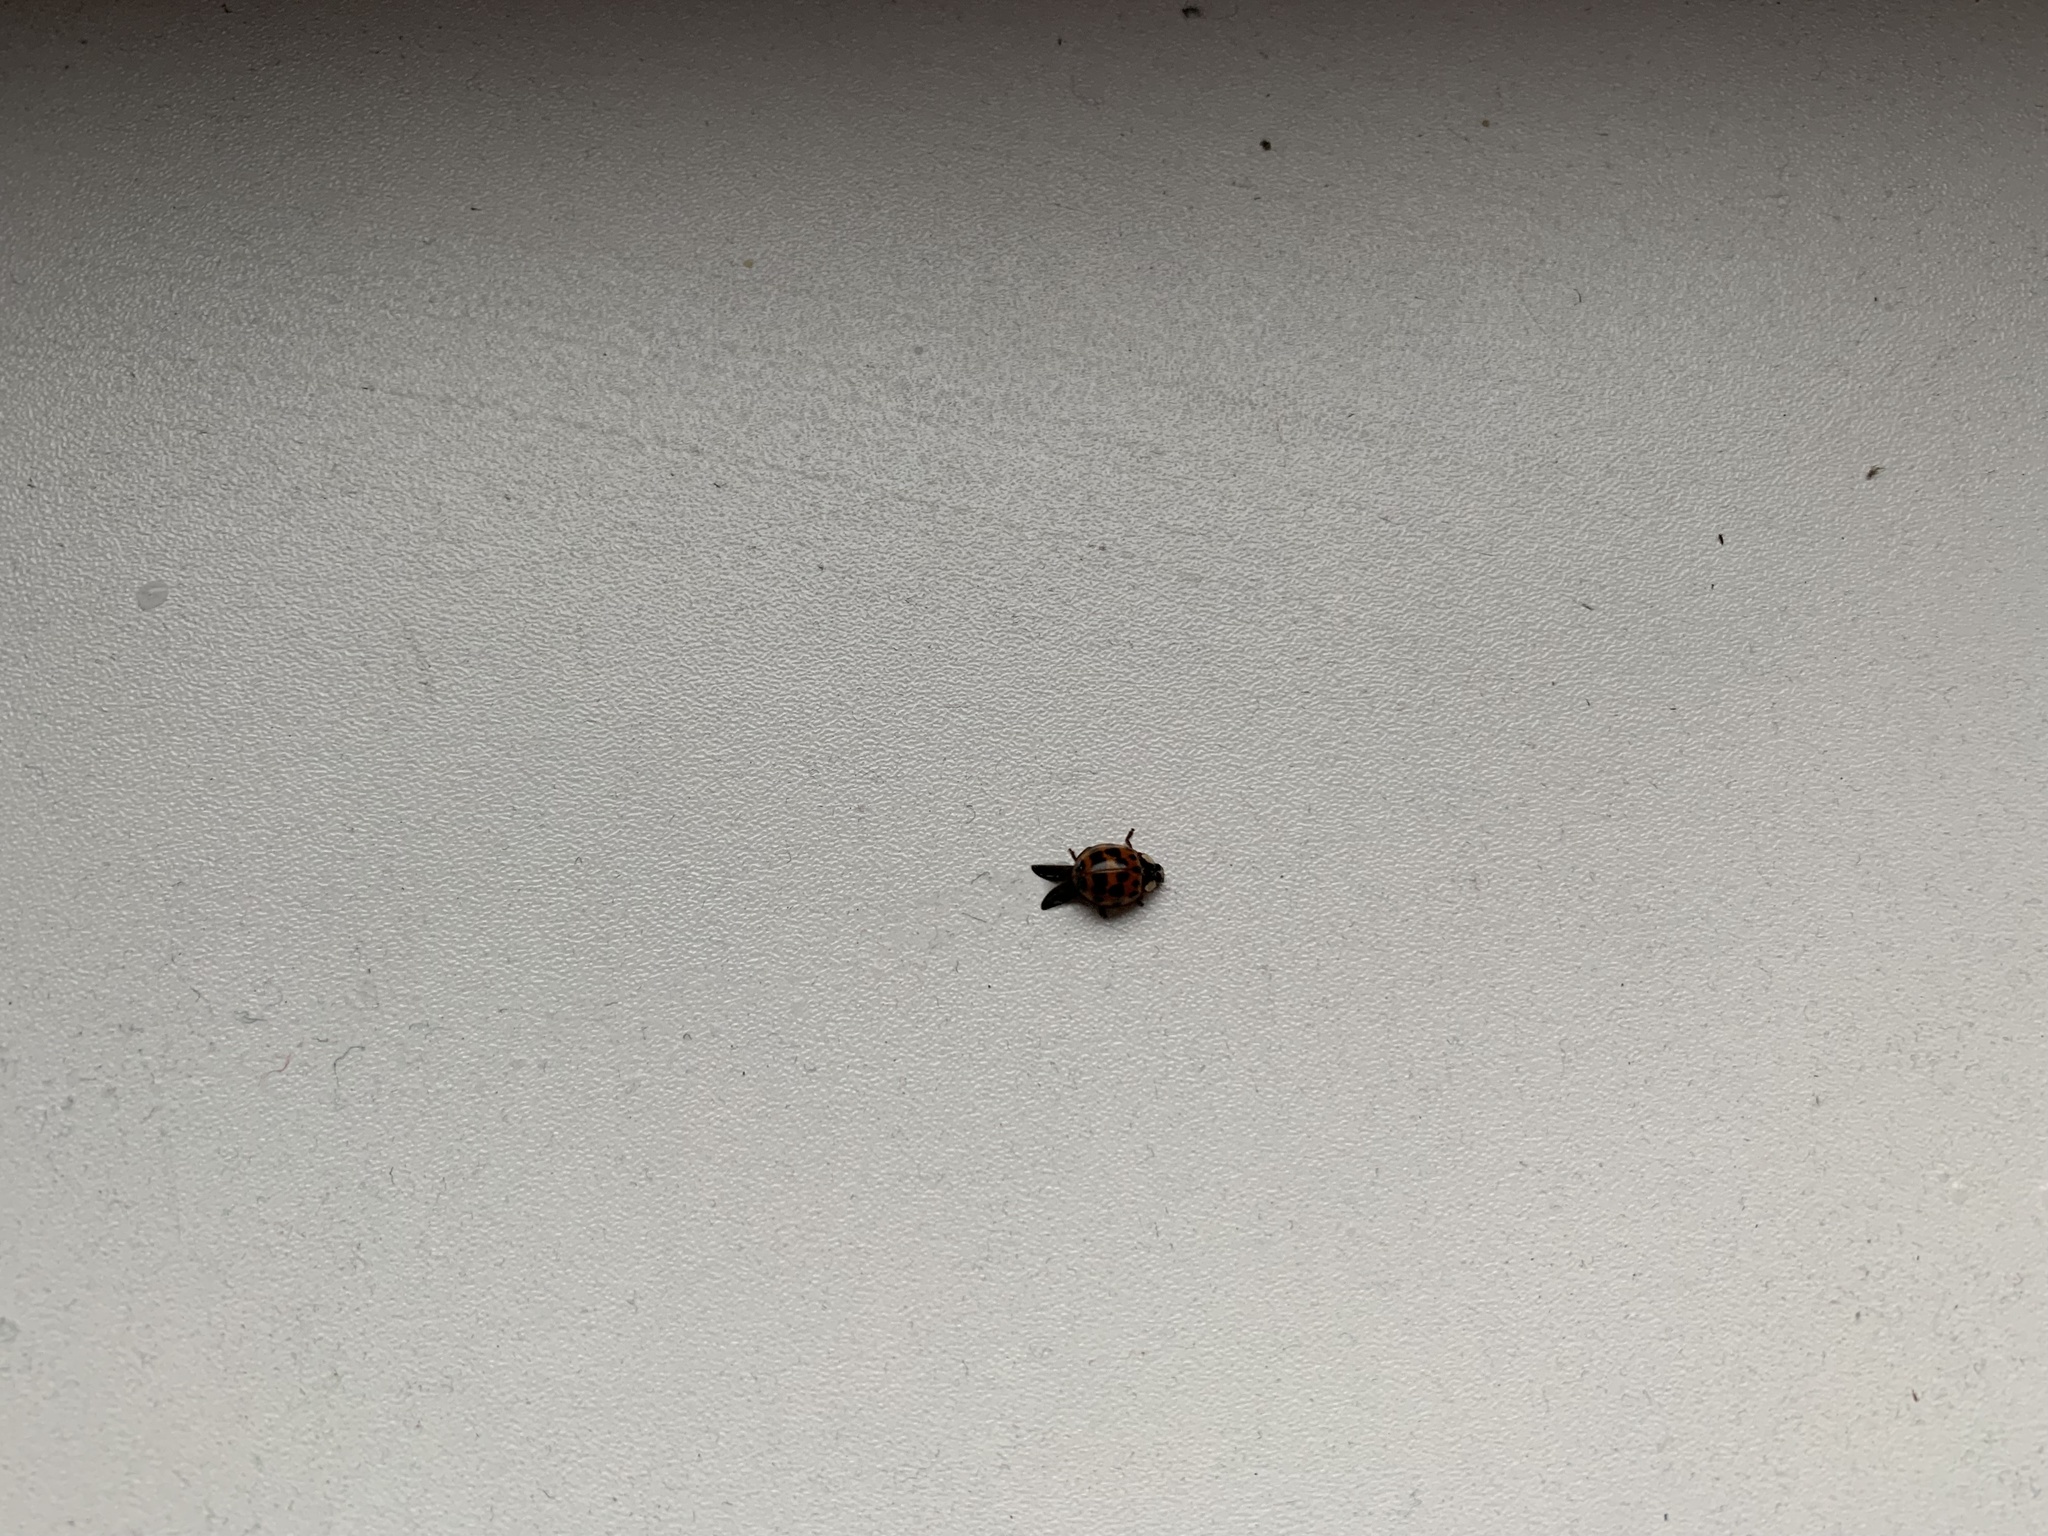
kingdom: Animalia
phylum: Arthropoda
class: Insecta
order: Coleoptera
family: Coccinellidae
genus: Harmonia
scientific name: Harmonia axyridis
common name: Harlequin ladybird
